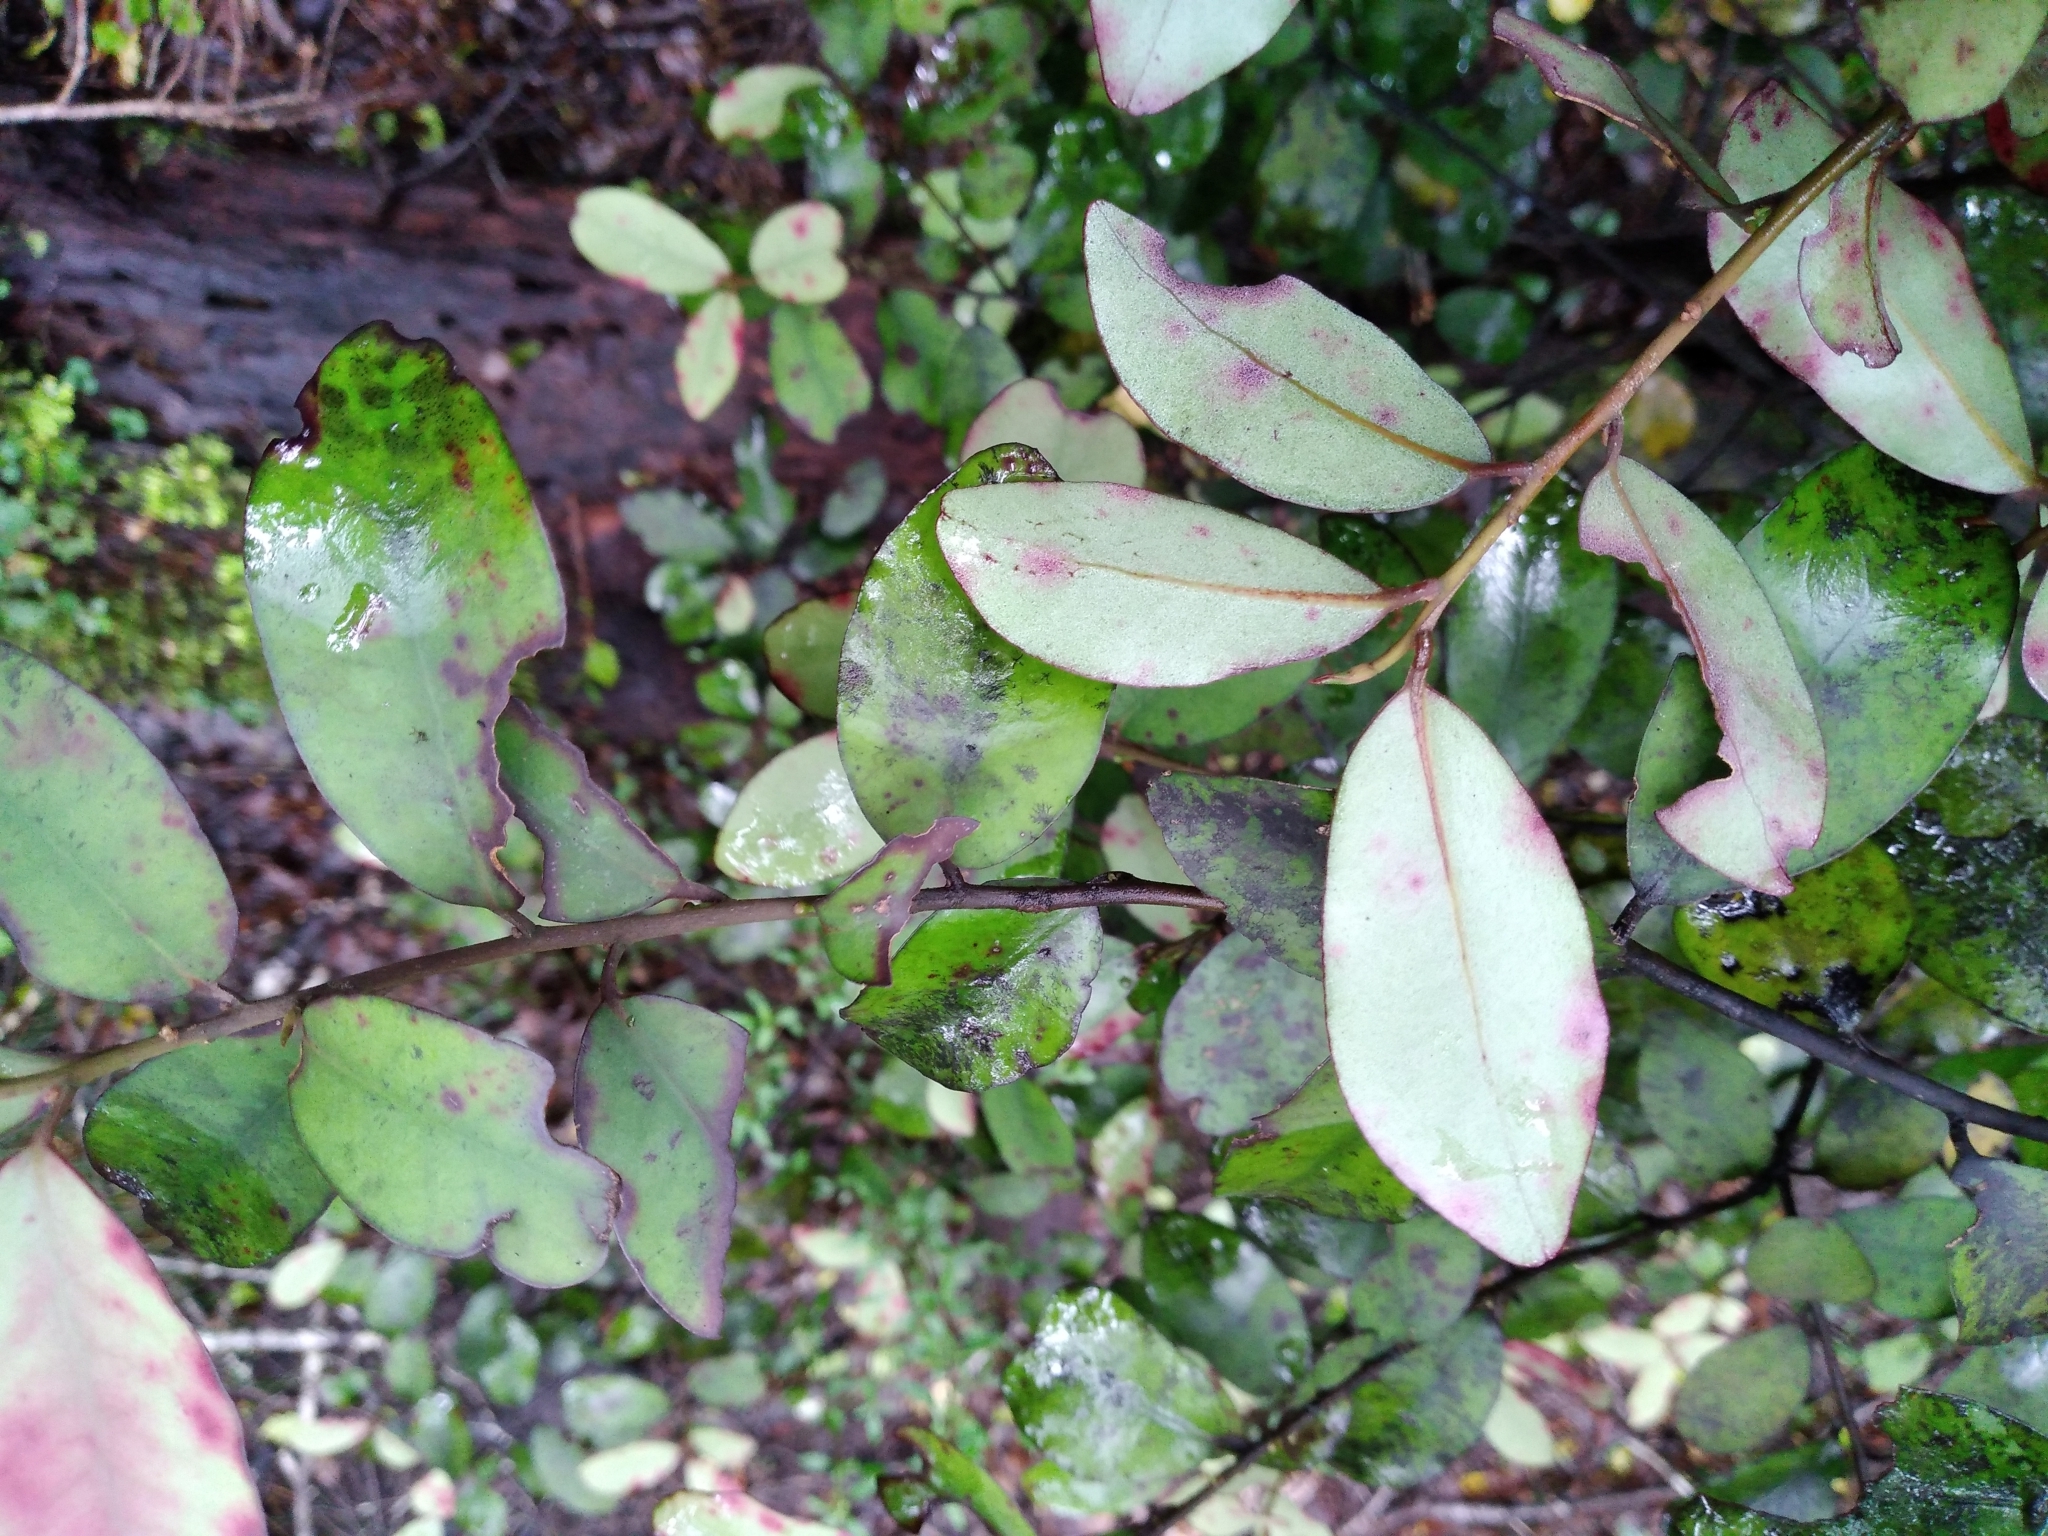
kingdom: Plantae
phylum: Tracheophyta
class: Magnoliopsida
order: Canellales
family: Winteraceae
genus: Pseudowintera
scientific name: Pseudowintera colorata
